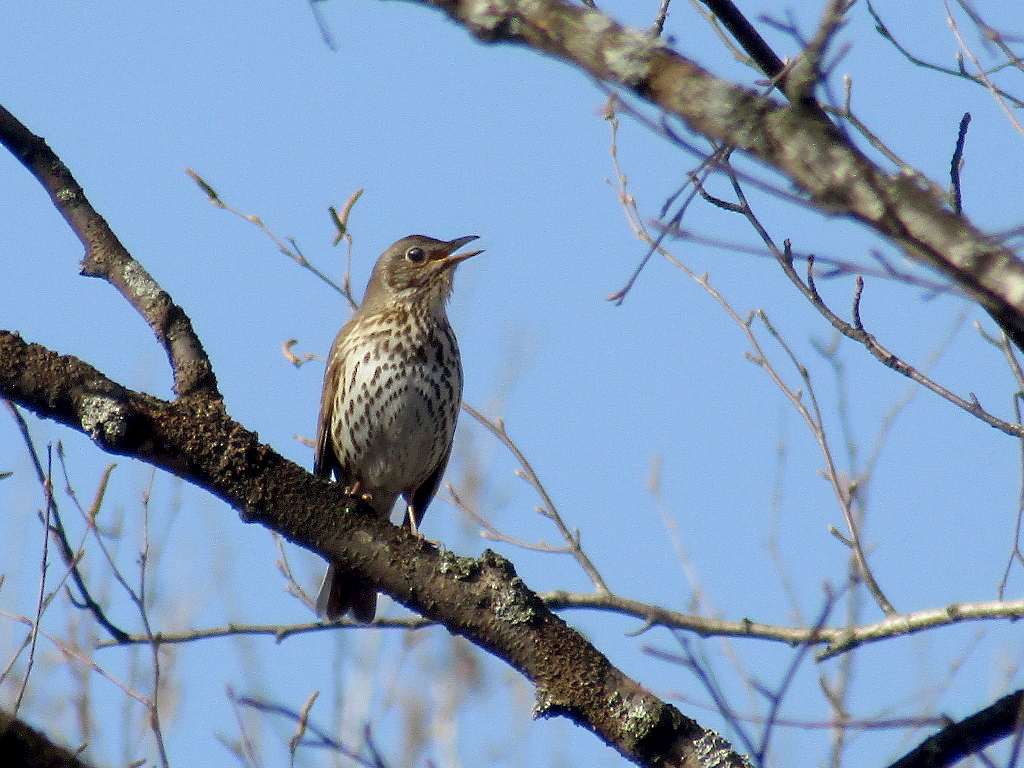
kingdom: Animalia
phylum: Chordata
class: Aves
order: Passeriformes
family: Turdidae
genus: Turdus
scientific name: Turdus philomelos
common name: Song thrush
